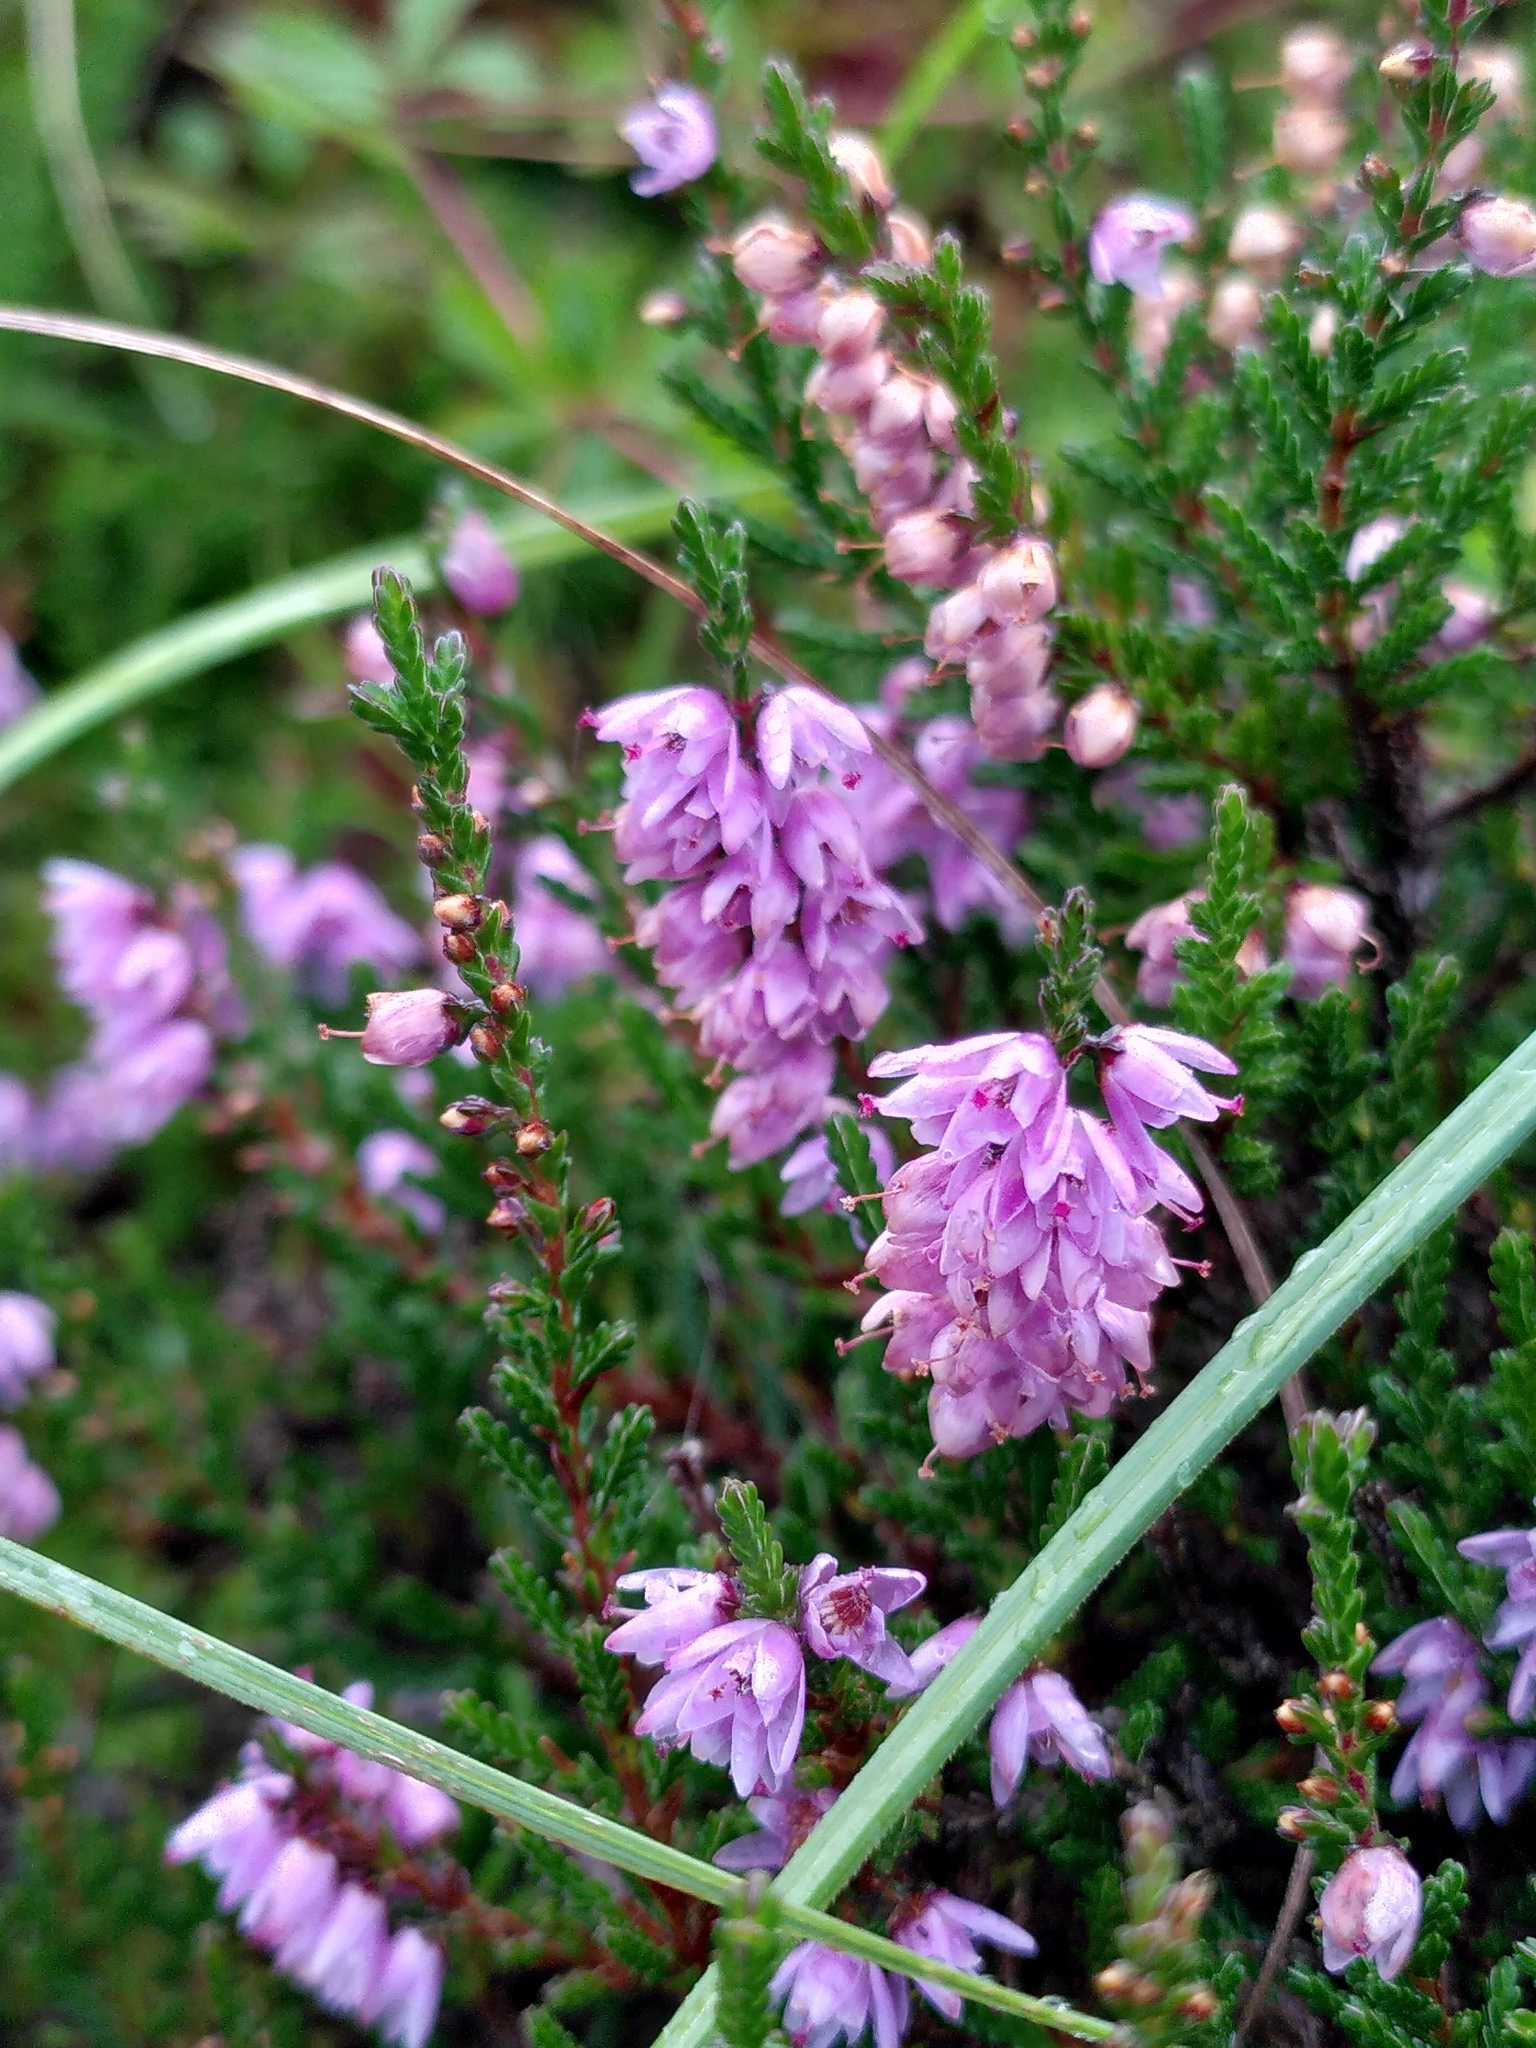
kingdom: Plantae
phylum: Tracheophyta
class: Magnoliopsida
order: Ericales
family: Ericaceae
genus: Calluna
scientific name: Calluna vulgaris
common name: Heather
